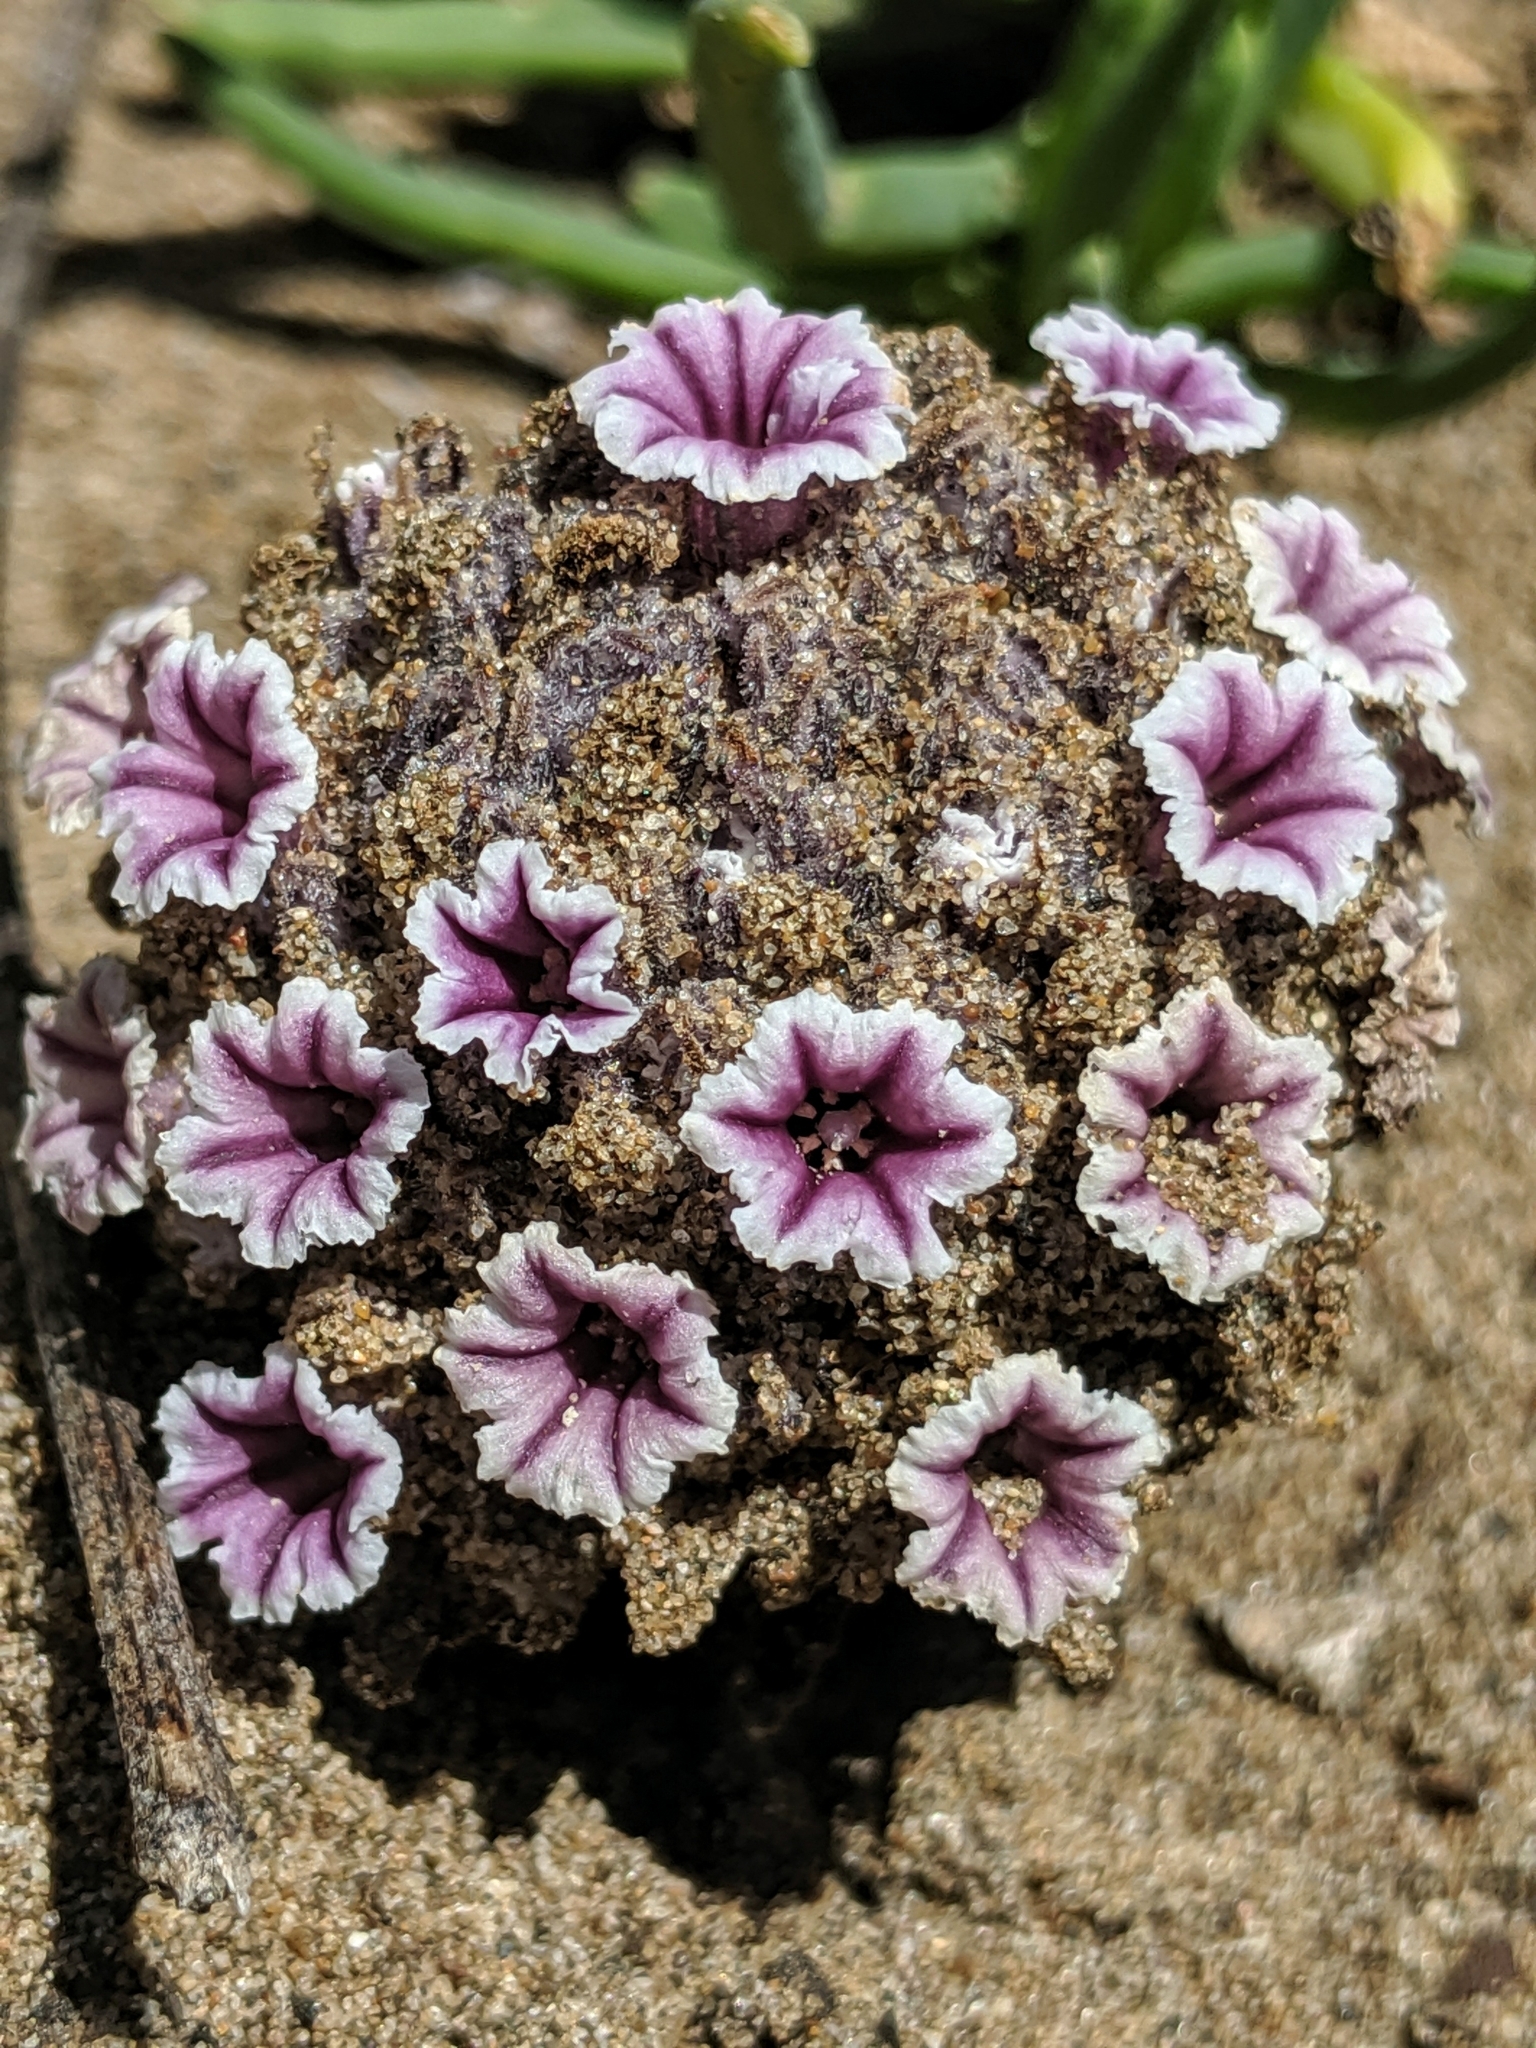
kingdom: Plantae
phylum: Tracheophyta
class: Magnoliopsida
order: Boraginales
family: Lennoaceae
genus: Pholisma
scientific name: Pholisma arenarium
